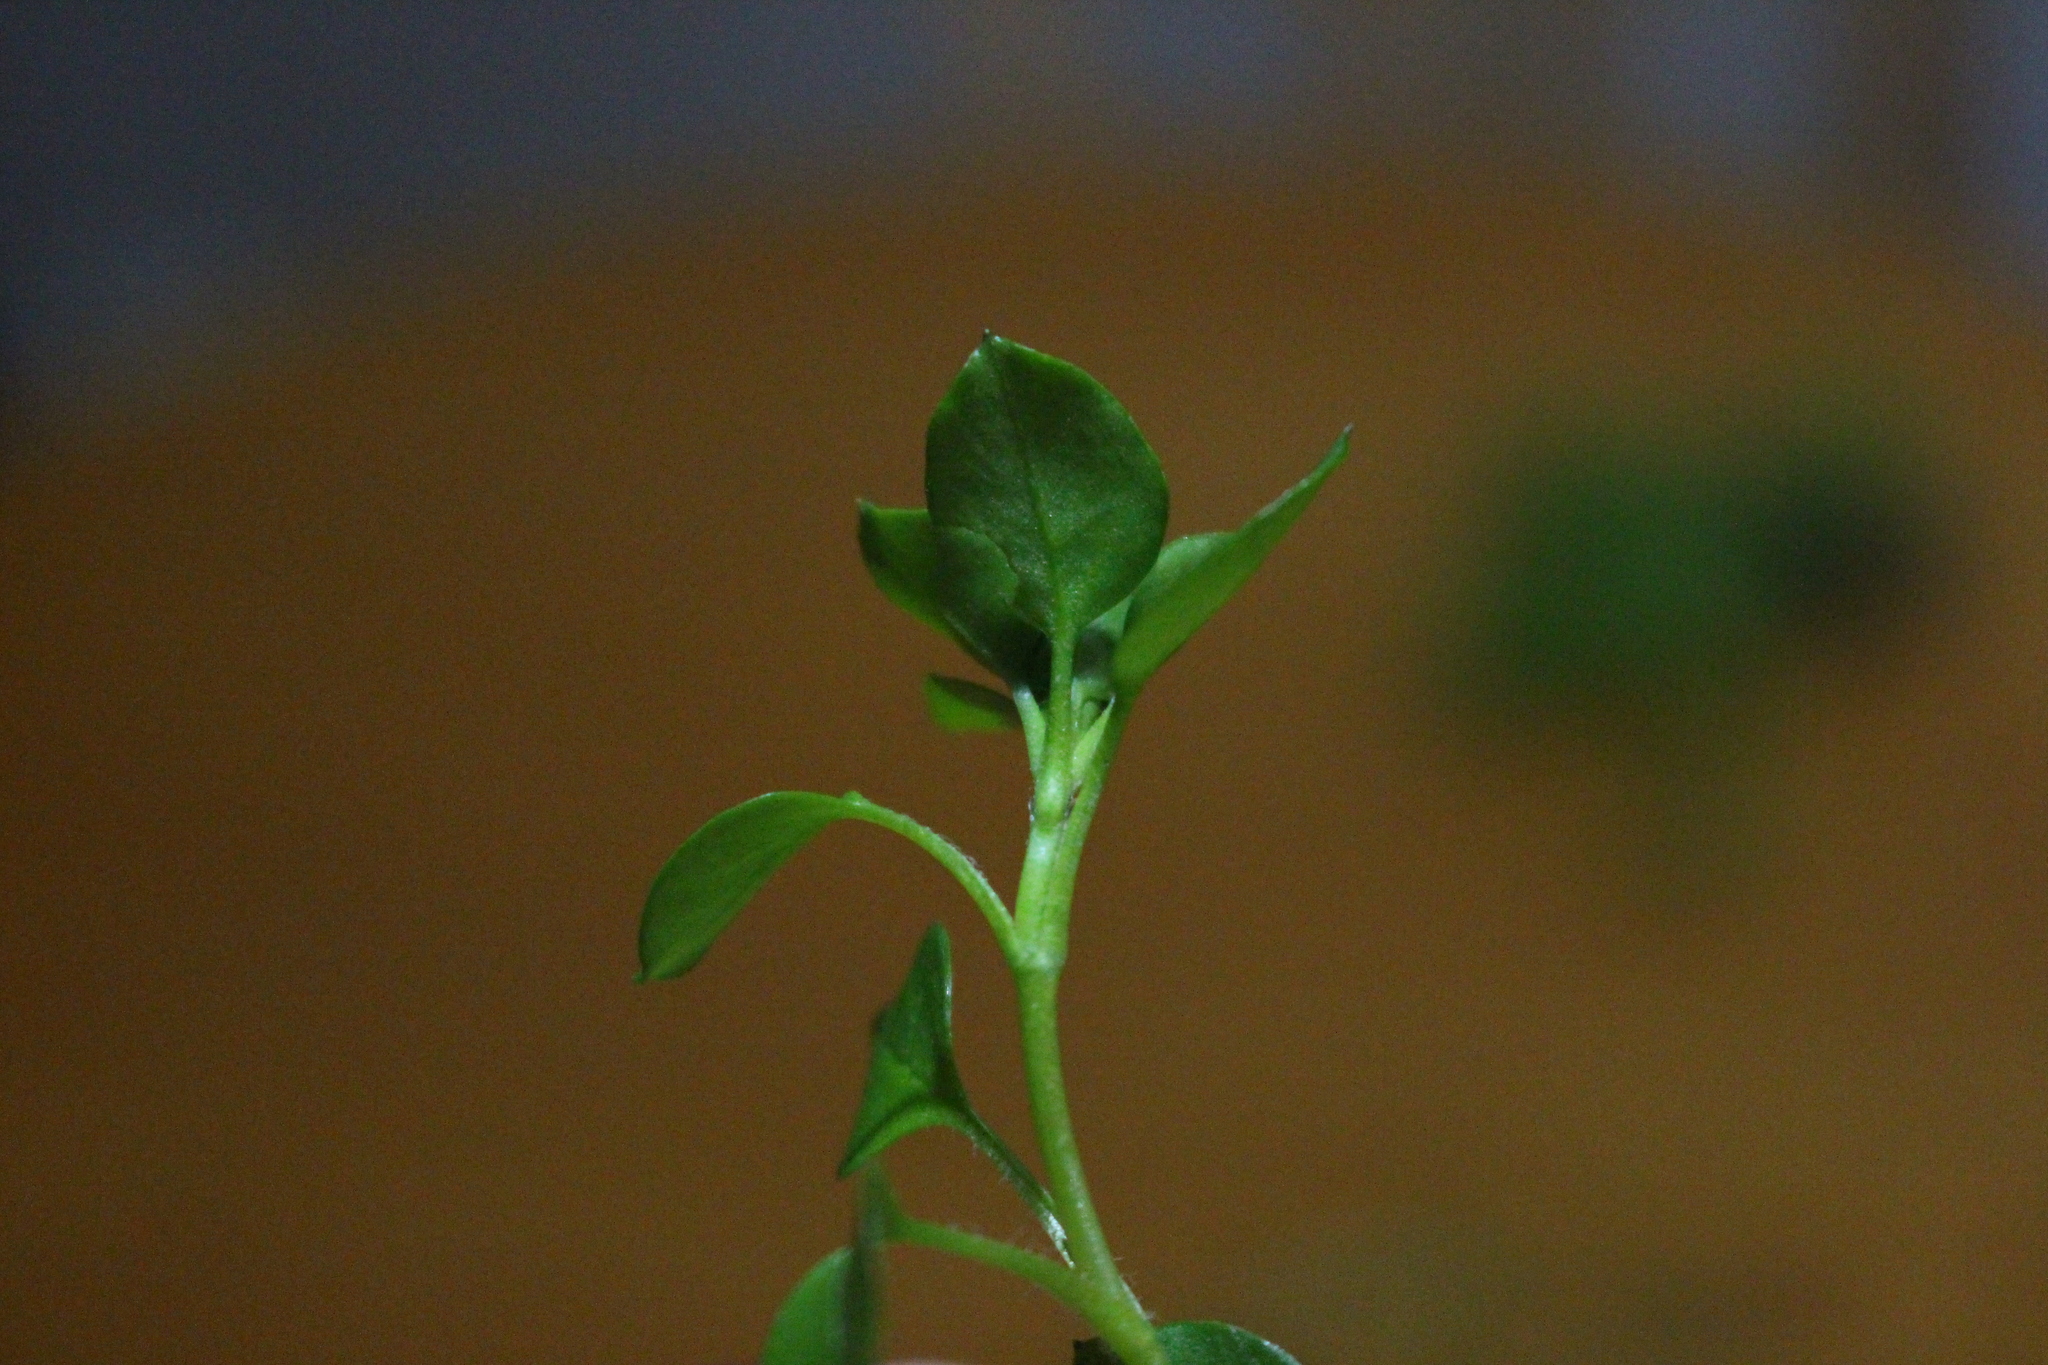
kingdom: Plantae
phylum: Tracheophyta
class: Magnoliopsida
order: Caryophyllales
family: Caryophyllaceae
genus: Stellaria
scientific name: Stellaria media
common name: Common chickweed
